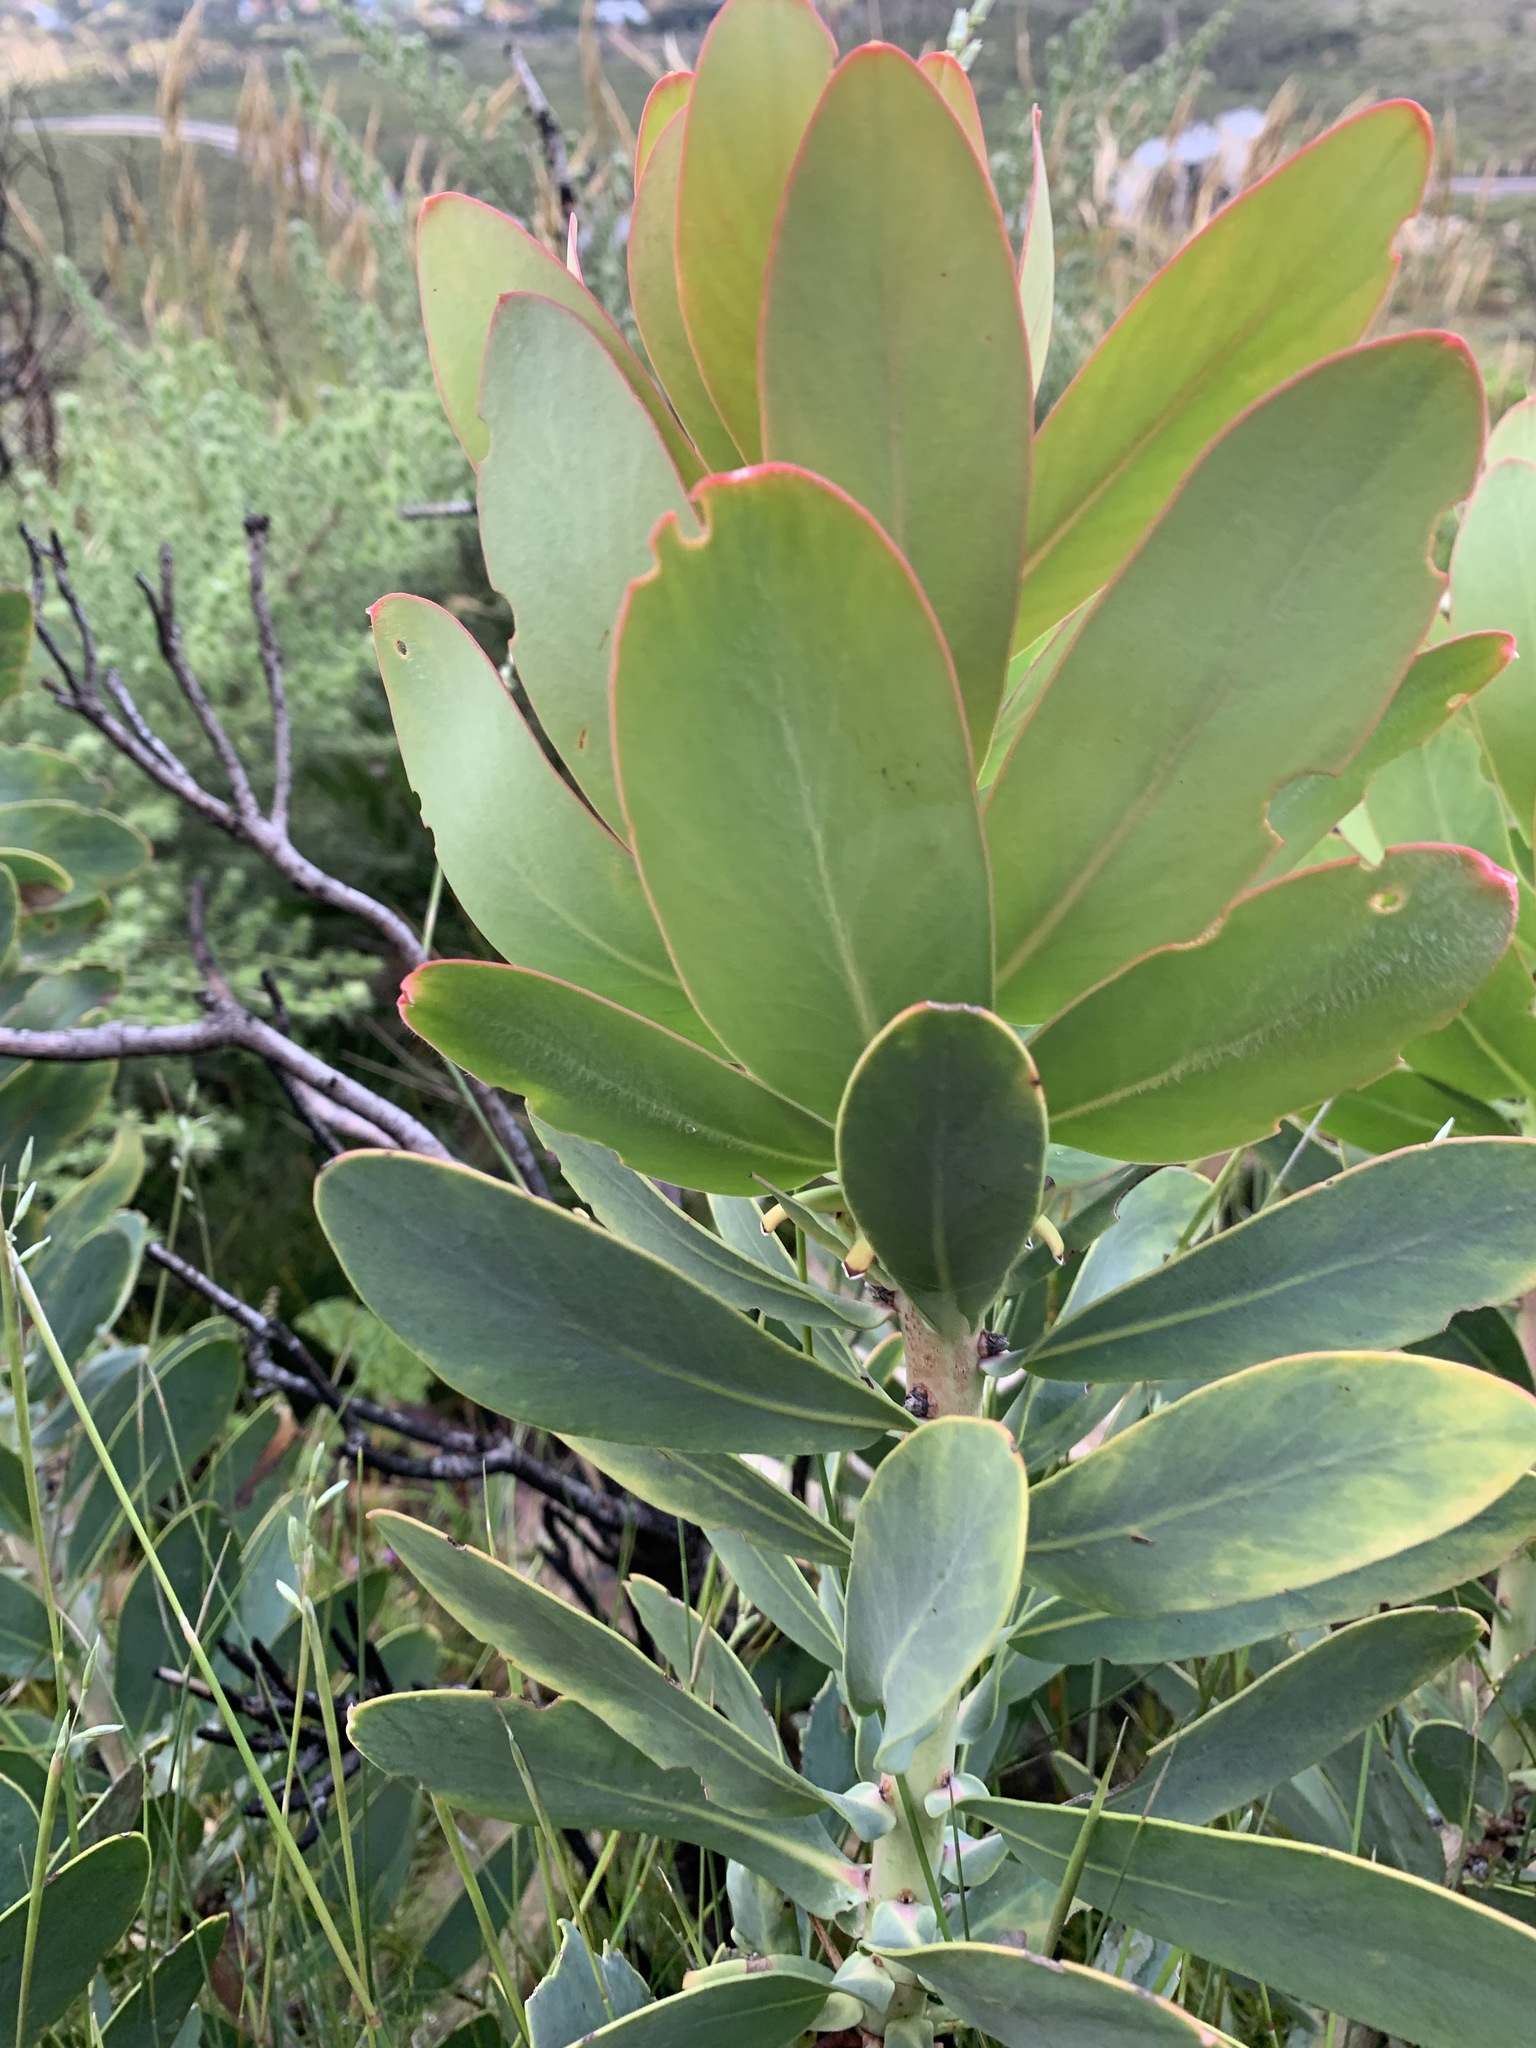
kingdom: Plantae
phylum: Tracheophyta
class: Magnoliopsida
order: Proteales
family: Proteaceae
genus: Protea
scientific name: Protea nitida
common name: Tree protea
